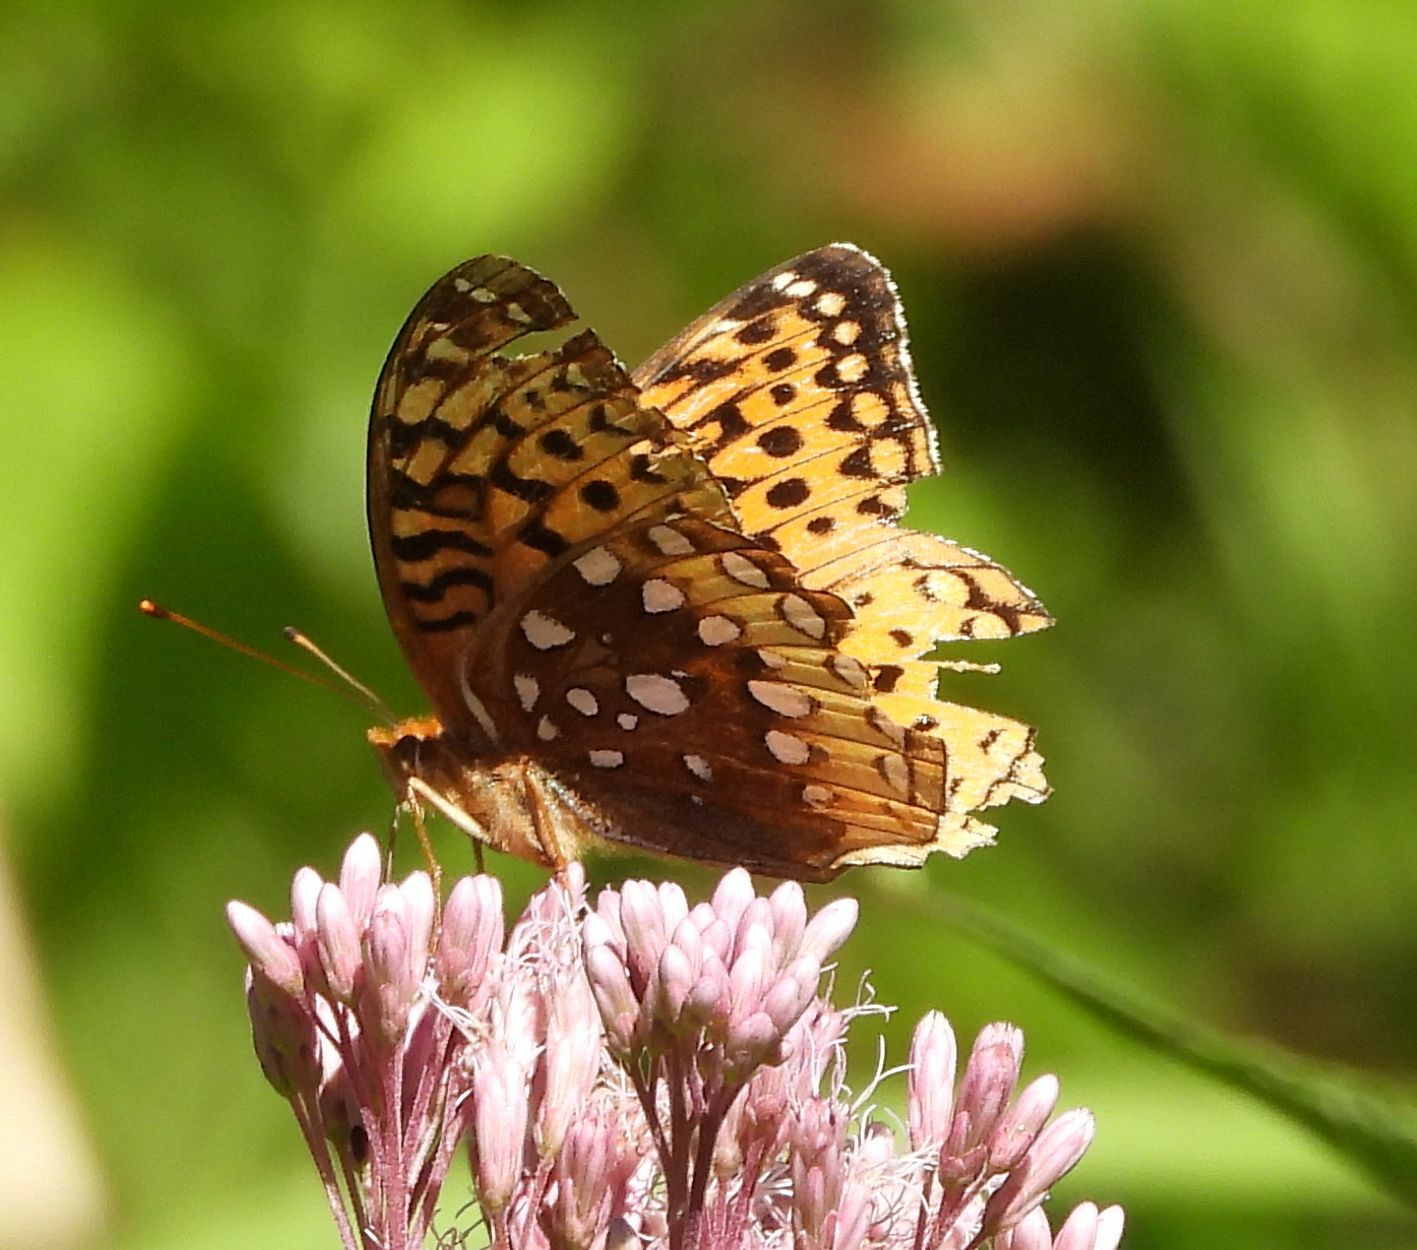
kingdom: Animalia
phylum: Arthropoda
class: Insecta
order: Lepidoptera
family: Nymphalidae
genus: Speyeria
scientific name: Speyeria cybele
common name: Great spangled fritillary
